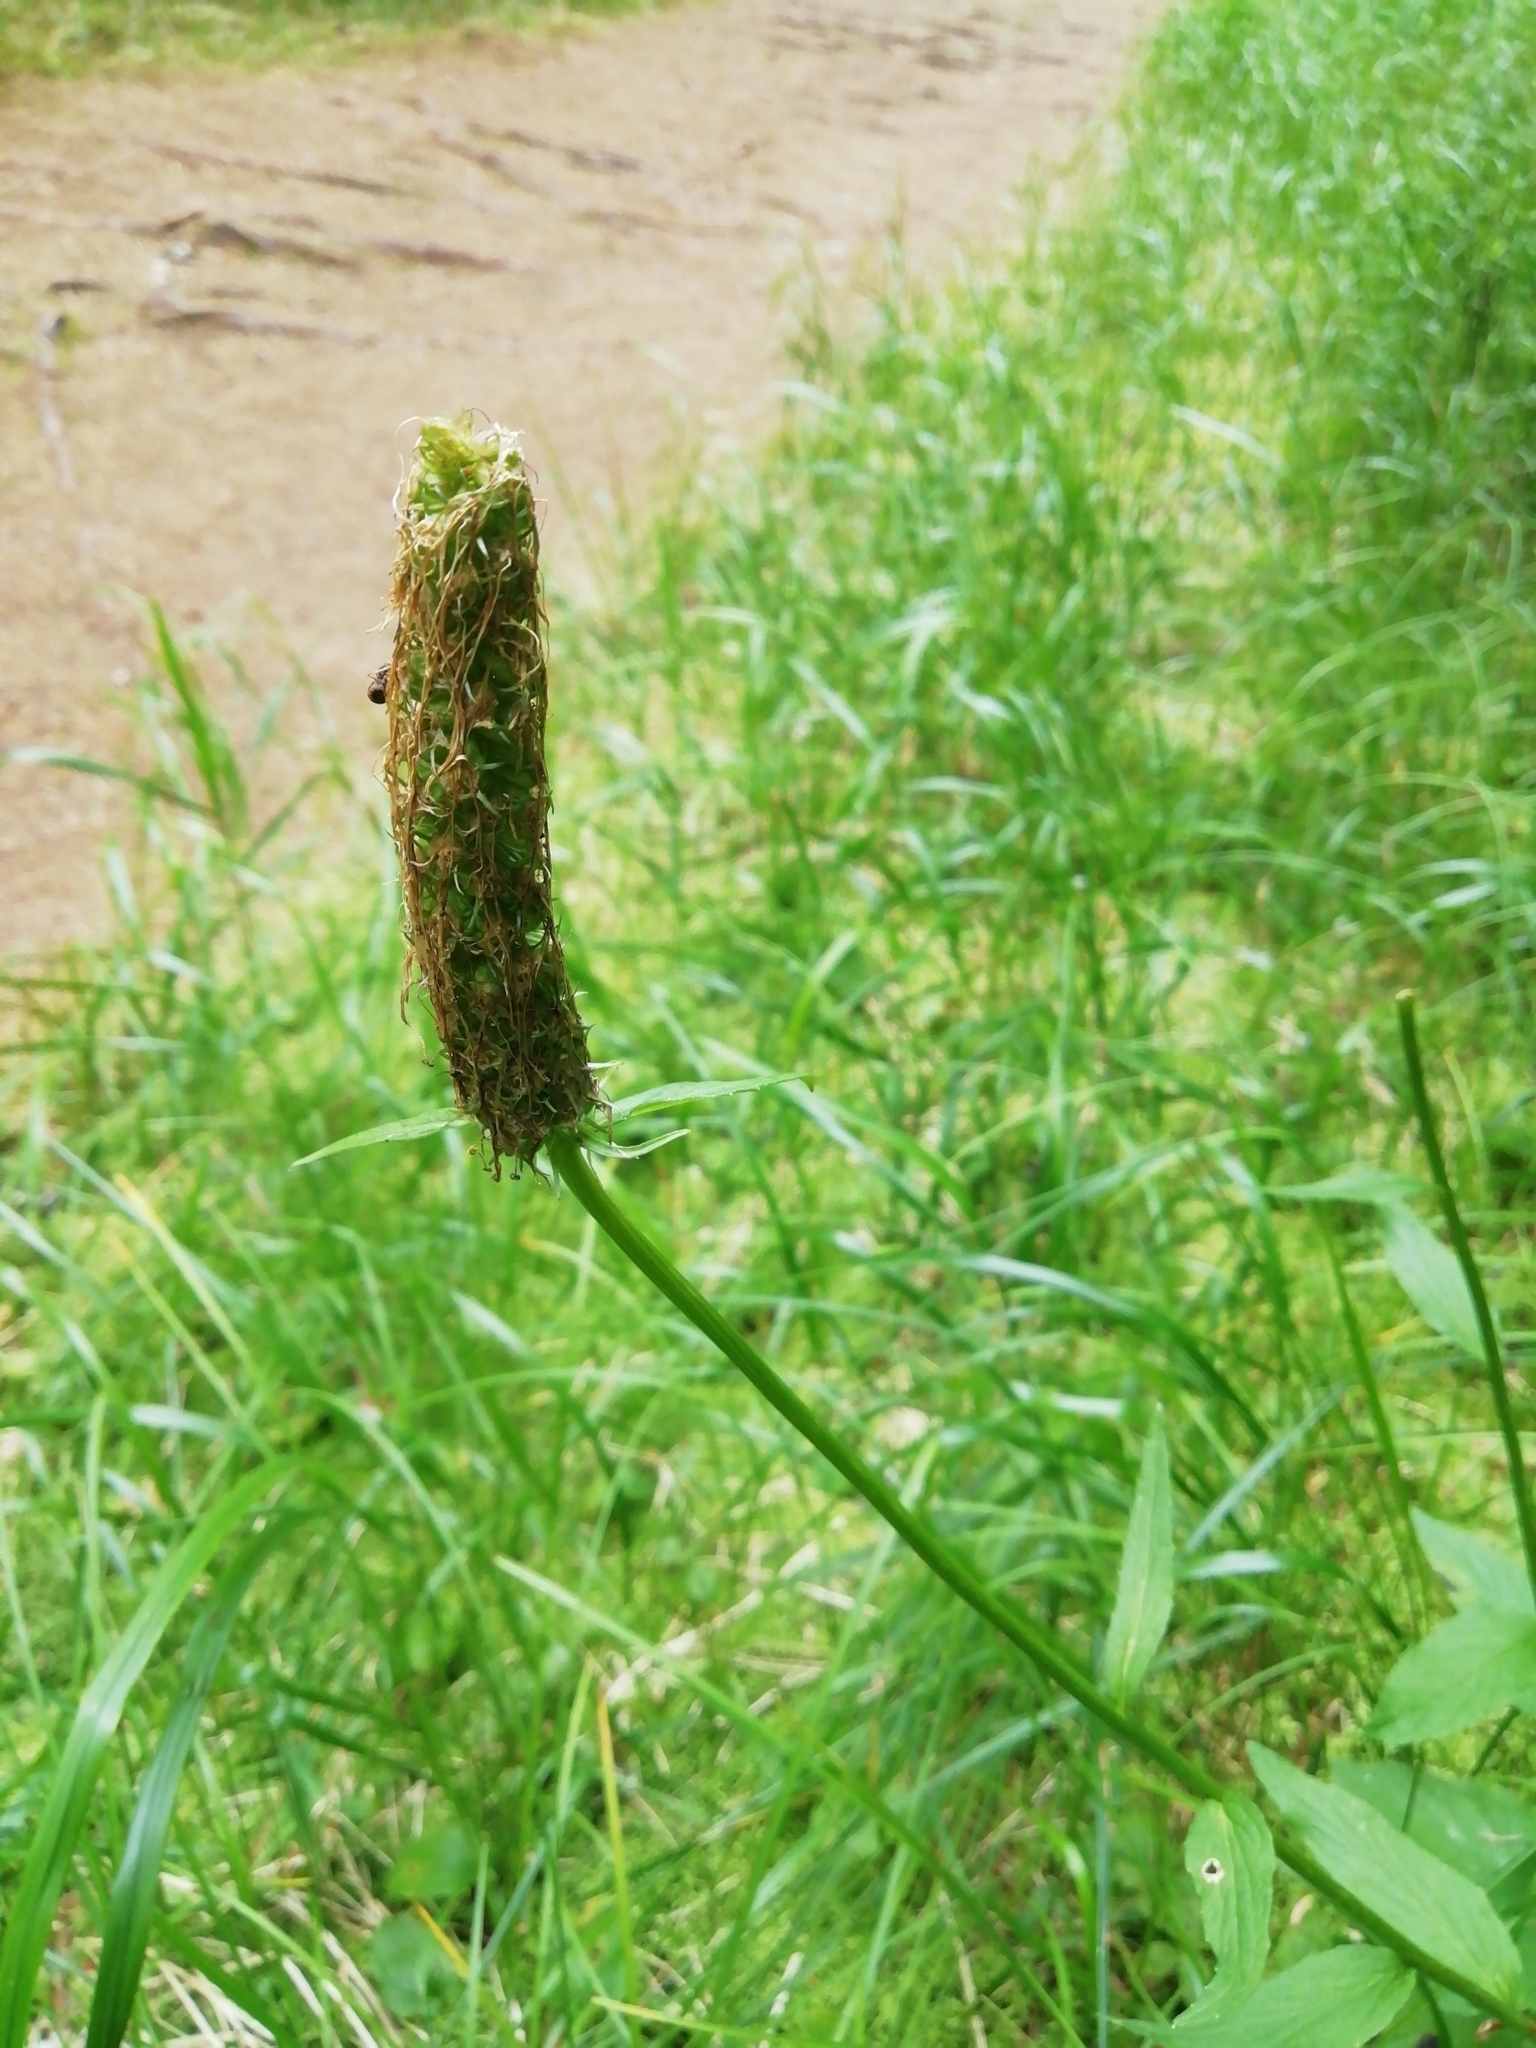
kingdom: Plantae
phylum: Tracheophyta
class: Magnoliopsida
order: Asterales
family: Campanulaceae
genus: Phyteuma
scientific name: Phyteuma spicatum
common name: Spiked rampion
